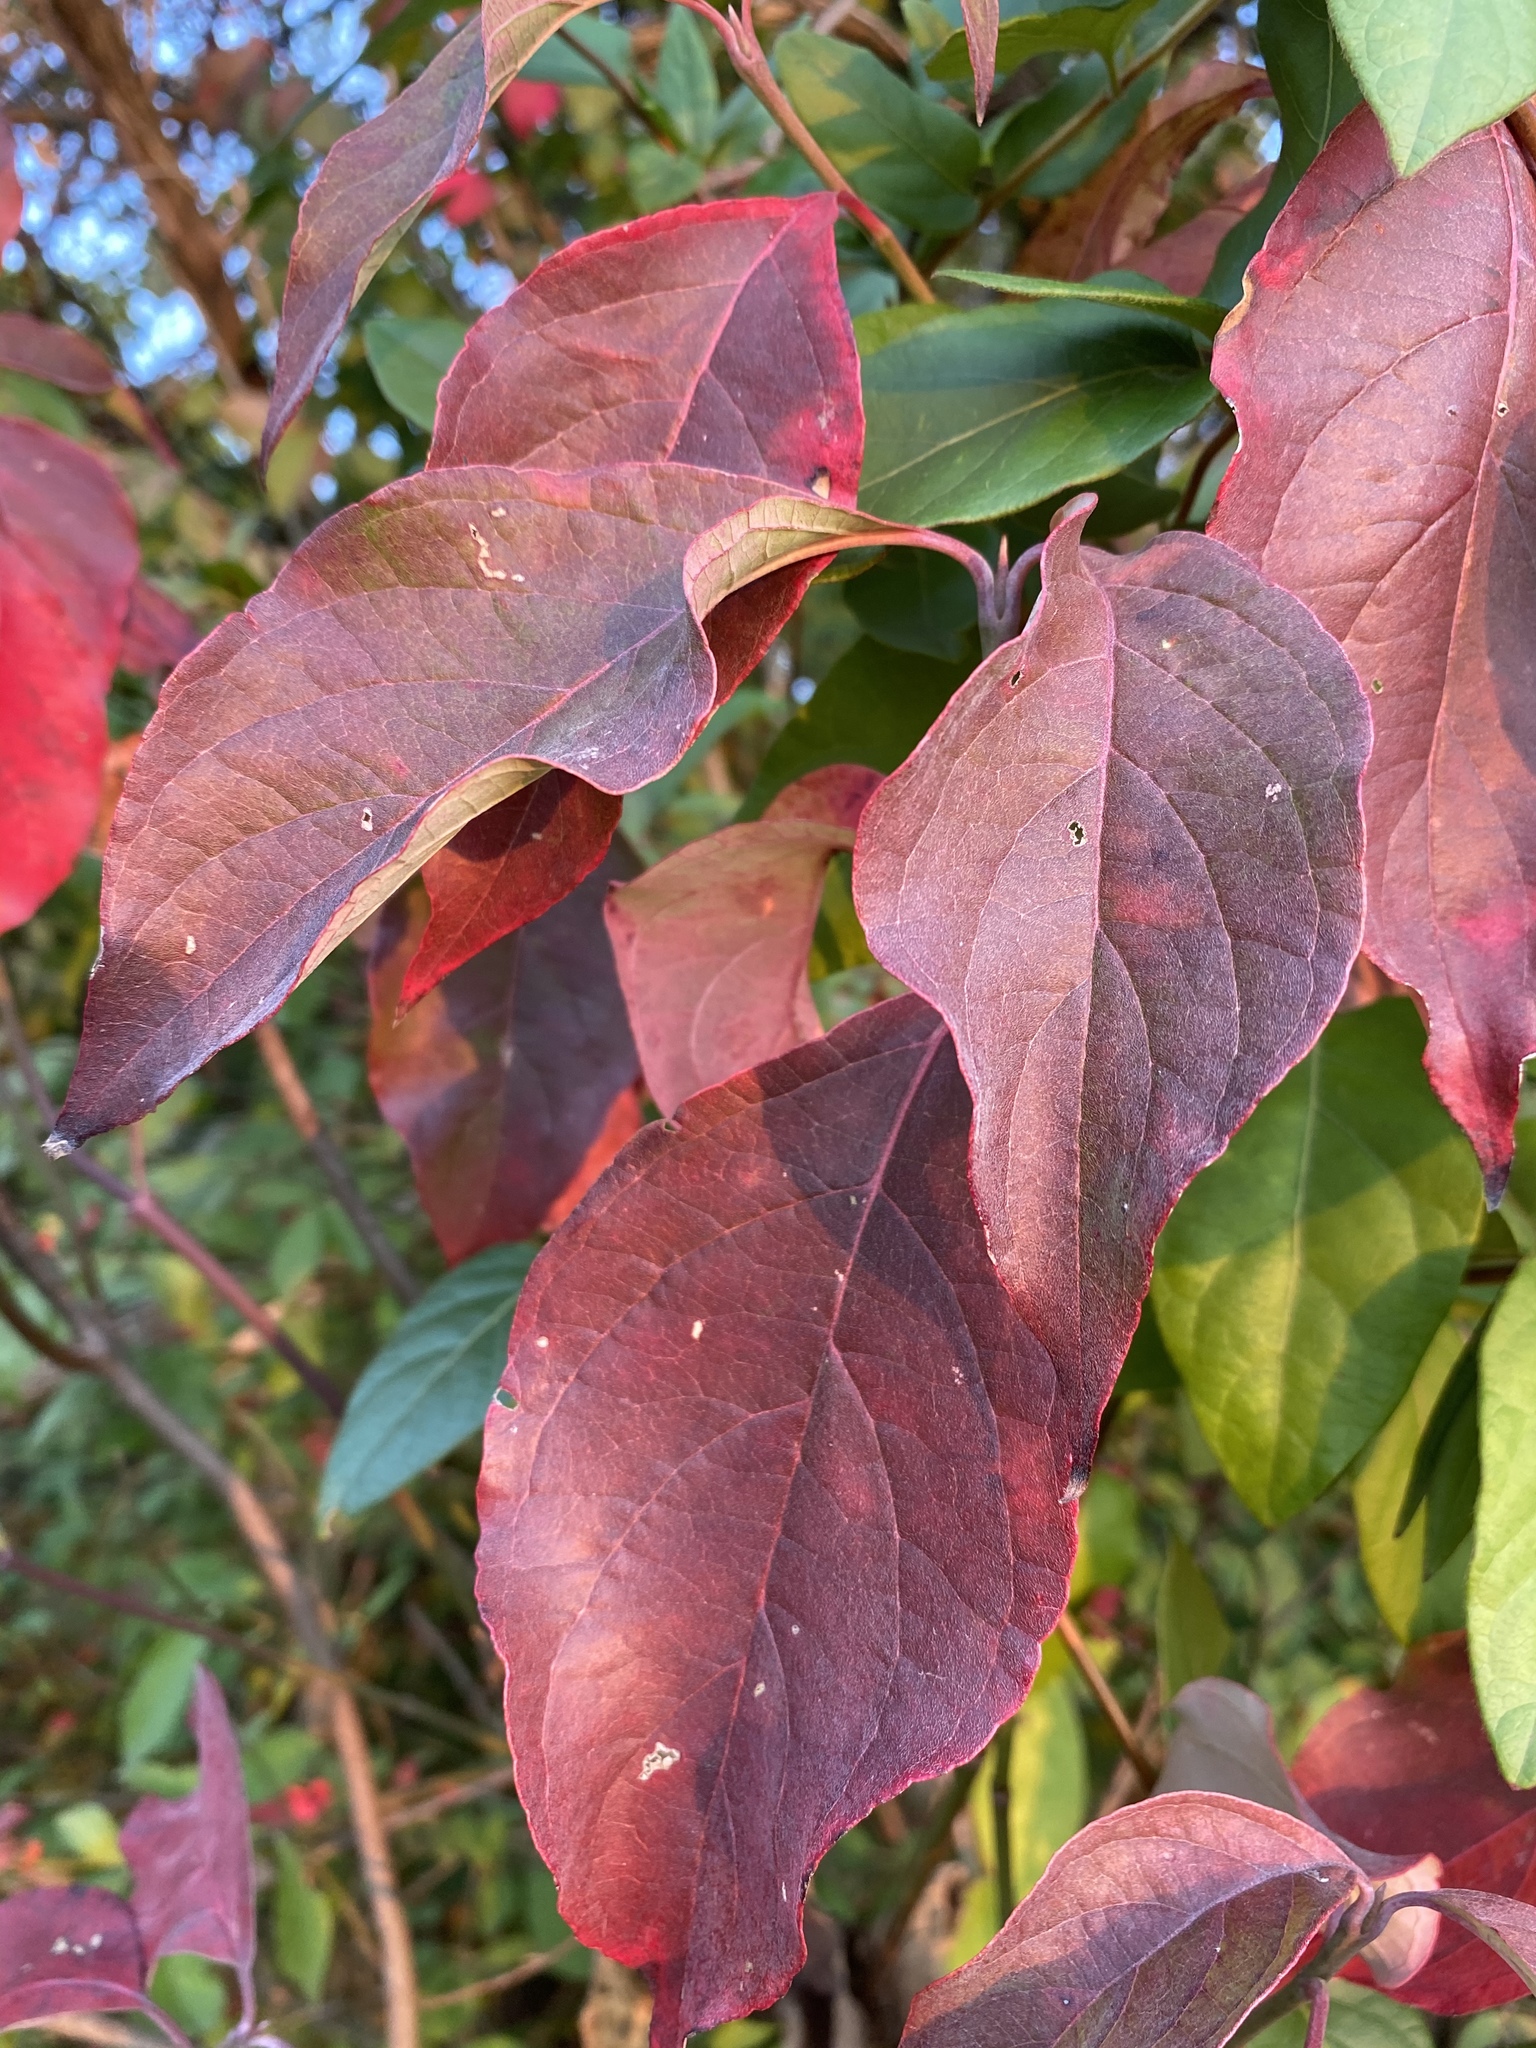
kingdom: Plantae
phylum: Tracheophyta
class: Magnoliopsida
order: Cornales
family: Cornaceae
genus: Cornus
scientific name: Cornus florida
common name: Flowering dogwood
